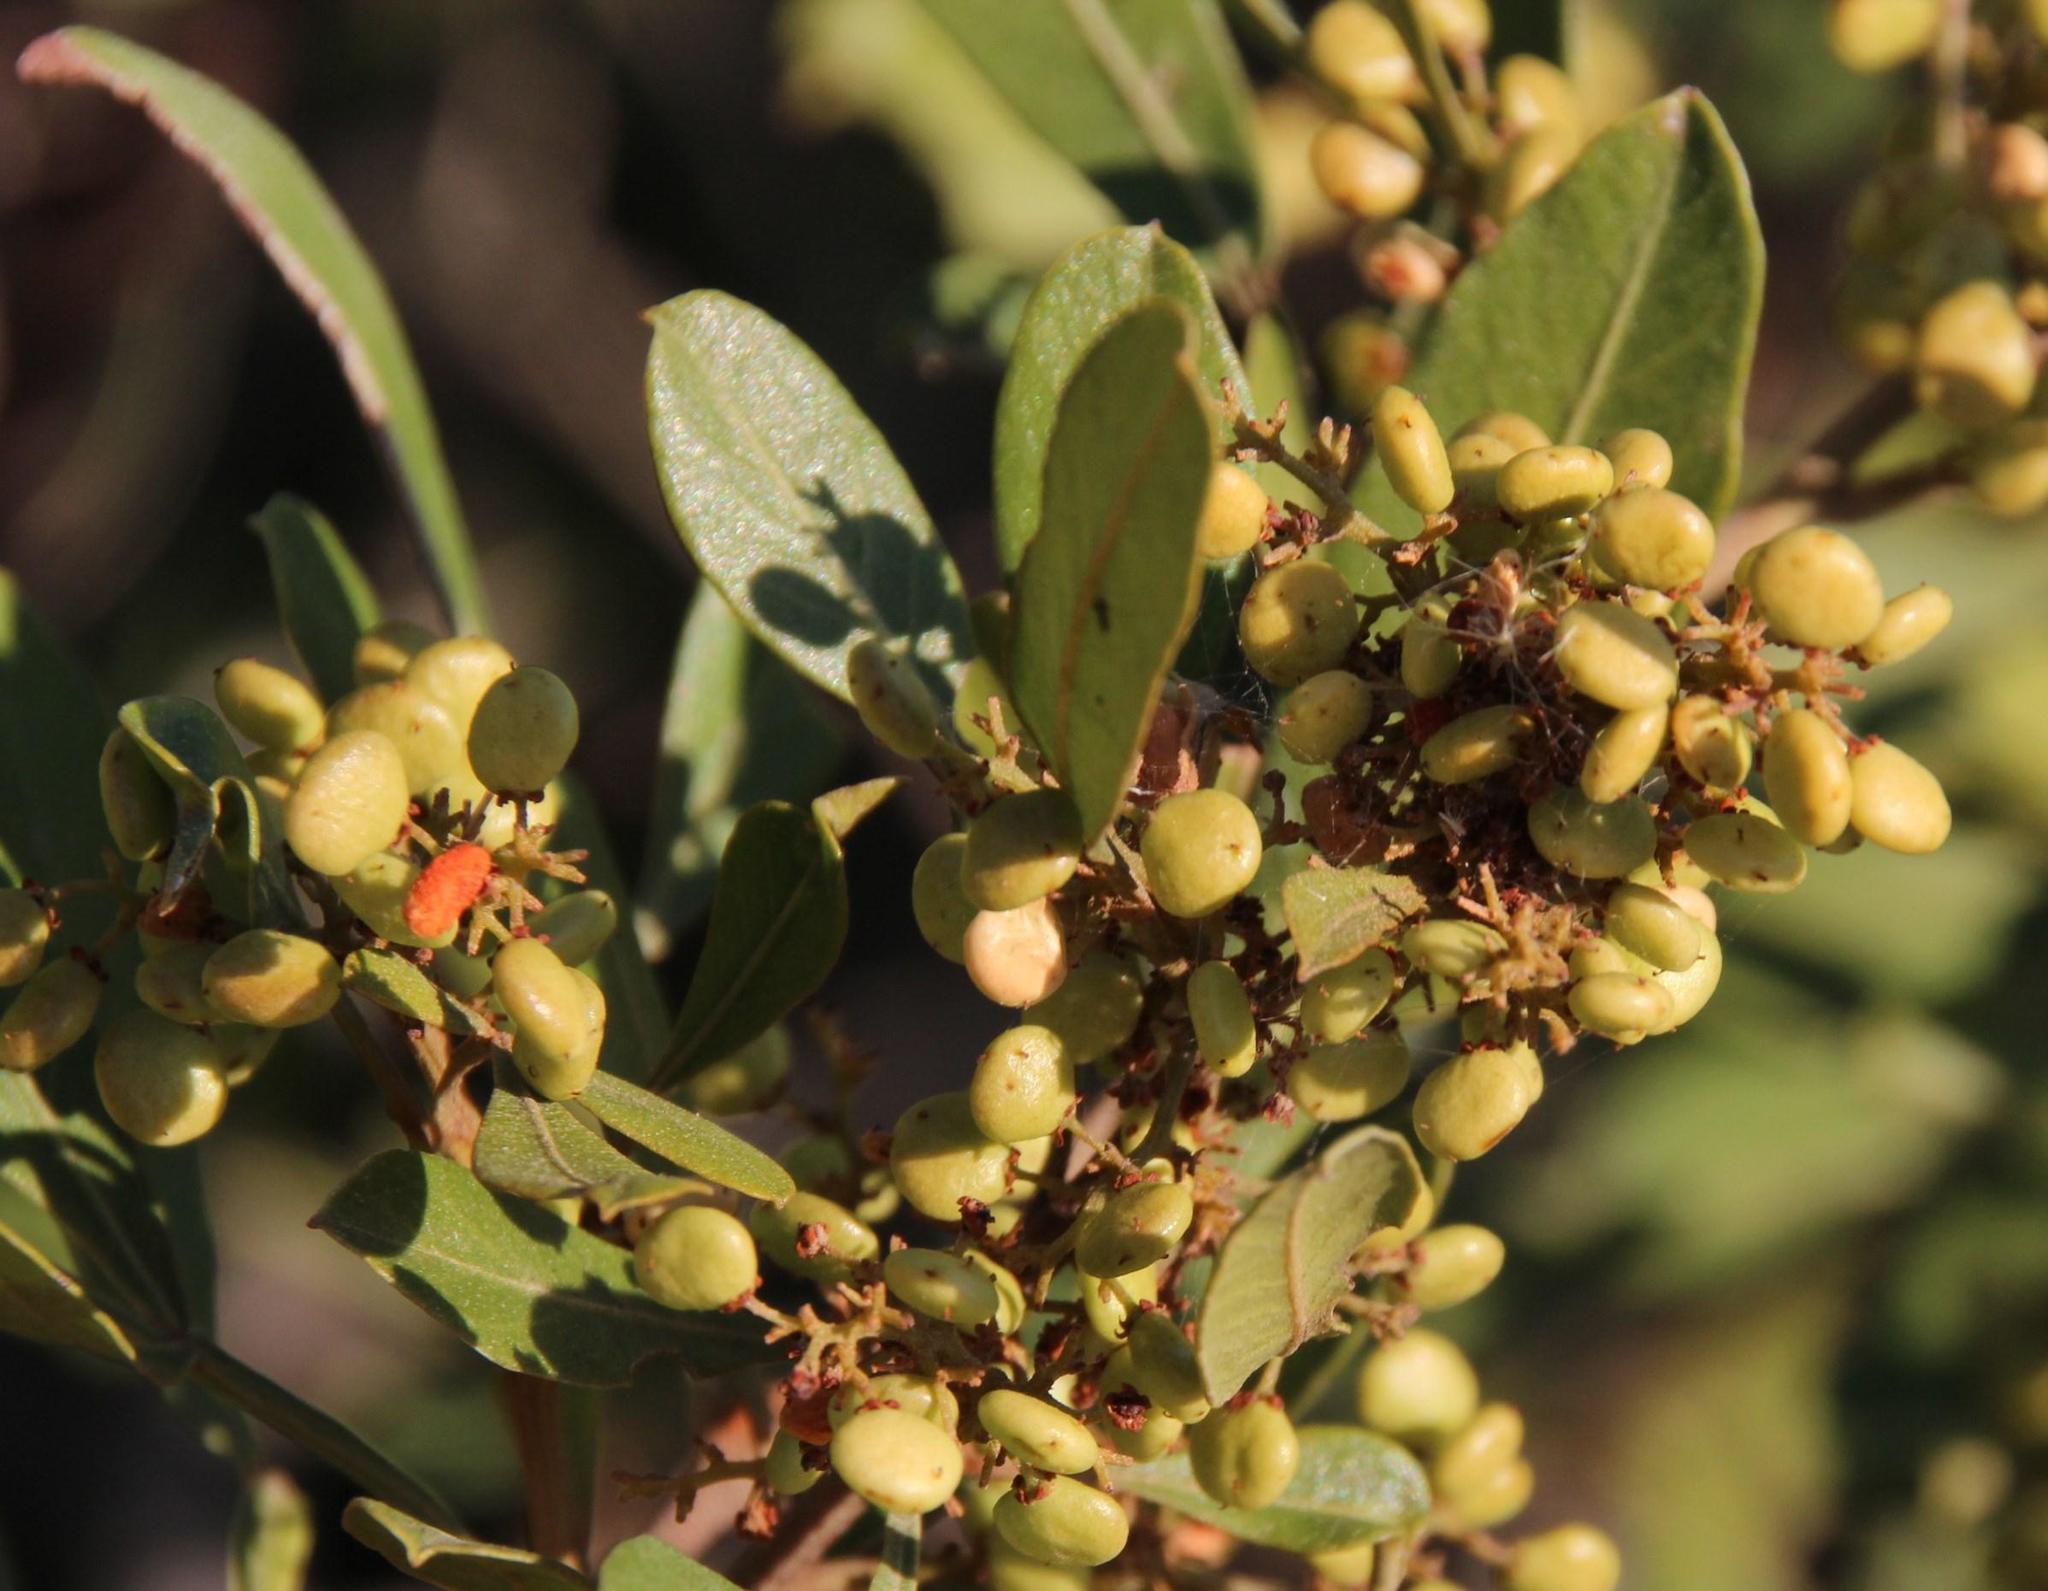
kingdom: Plantae
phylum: Tracheophyta
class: Magnoliopsida
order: Sapindales
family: Anacardiaceae
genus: Searsia
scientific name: Searsia pallens
